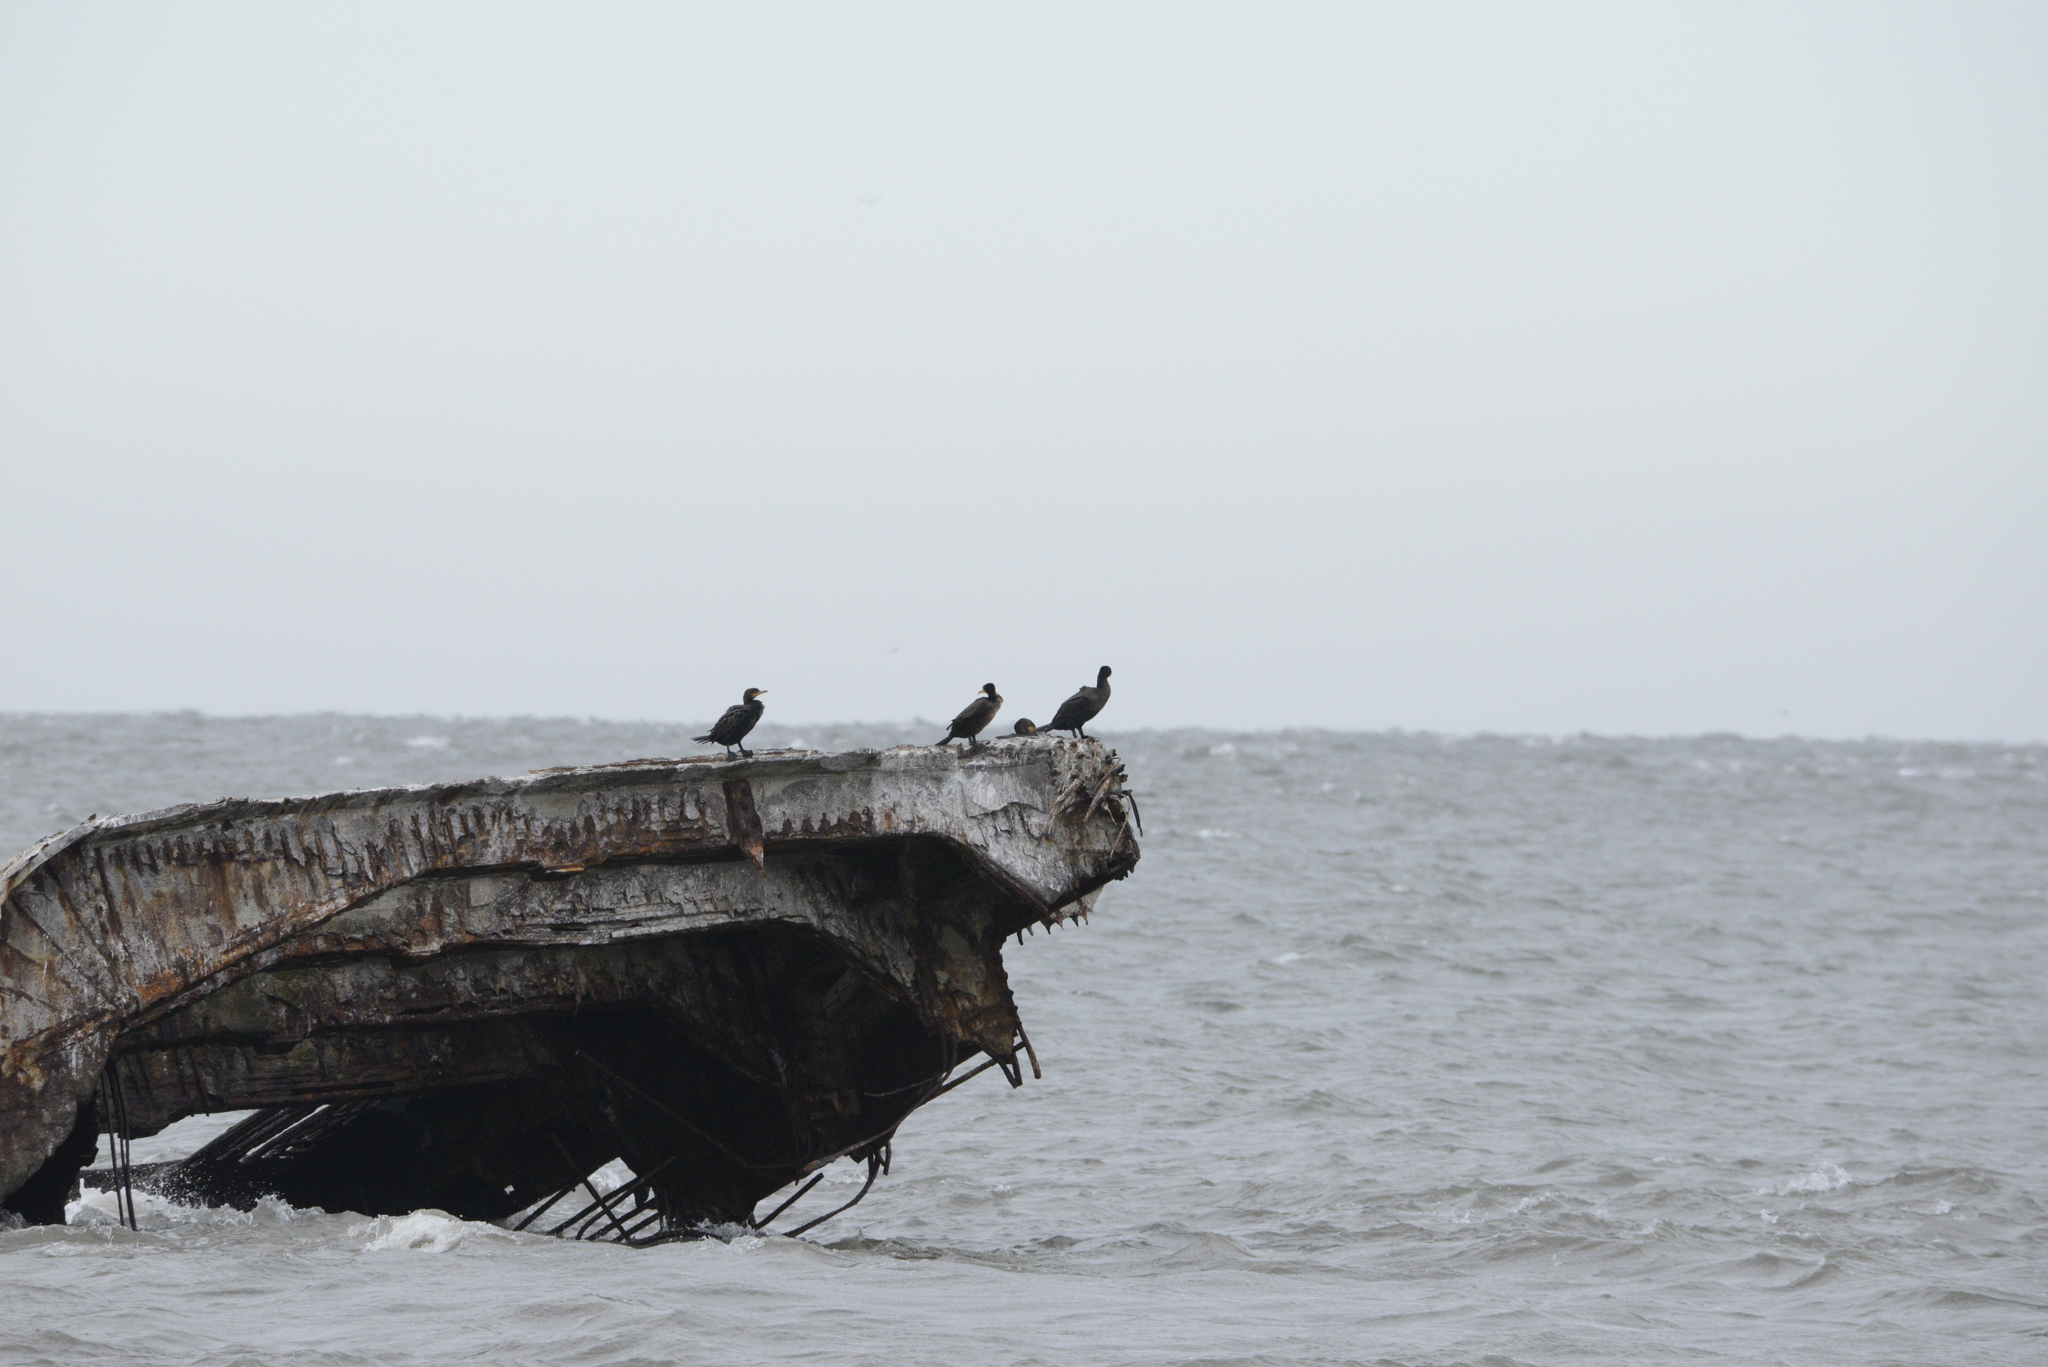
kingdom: Animalia
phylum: Chordata
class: Aves
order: Suliformes
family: Phalacrocoracidae
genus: Phalacrocorax
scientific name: Phalacrocorax auritus
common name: Double-crested cormorant
